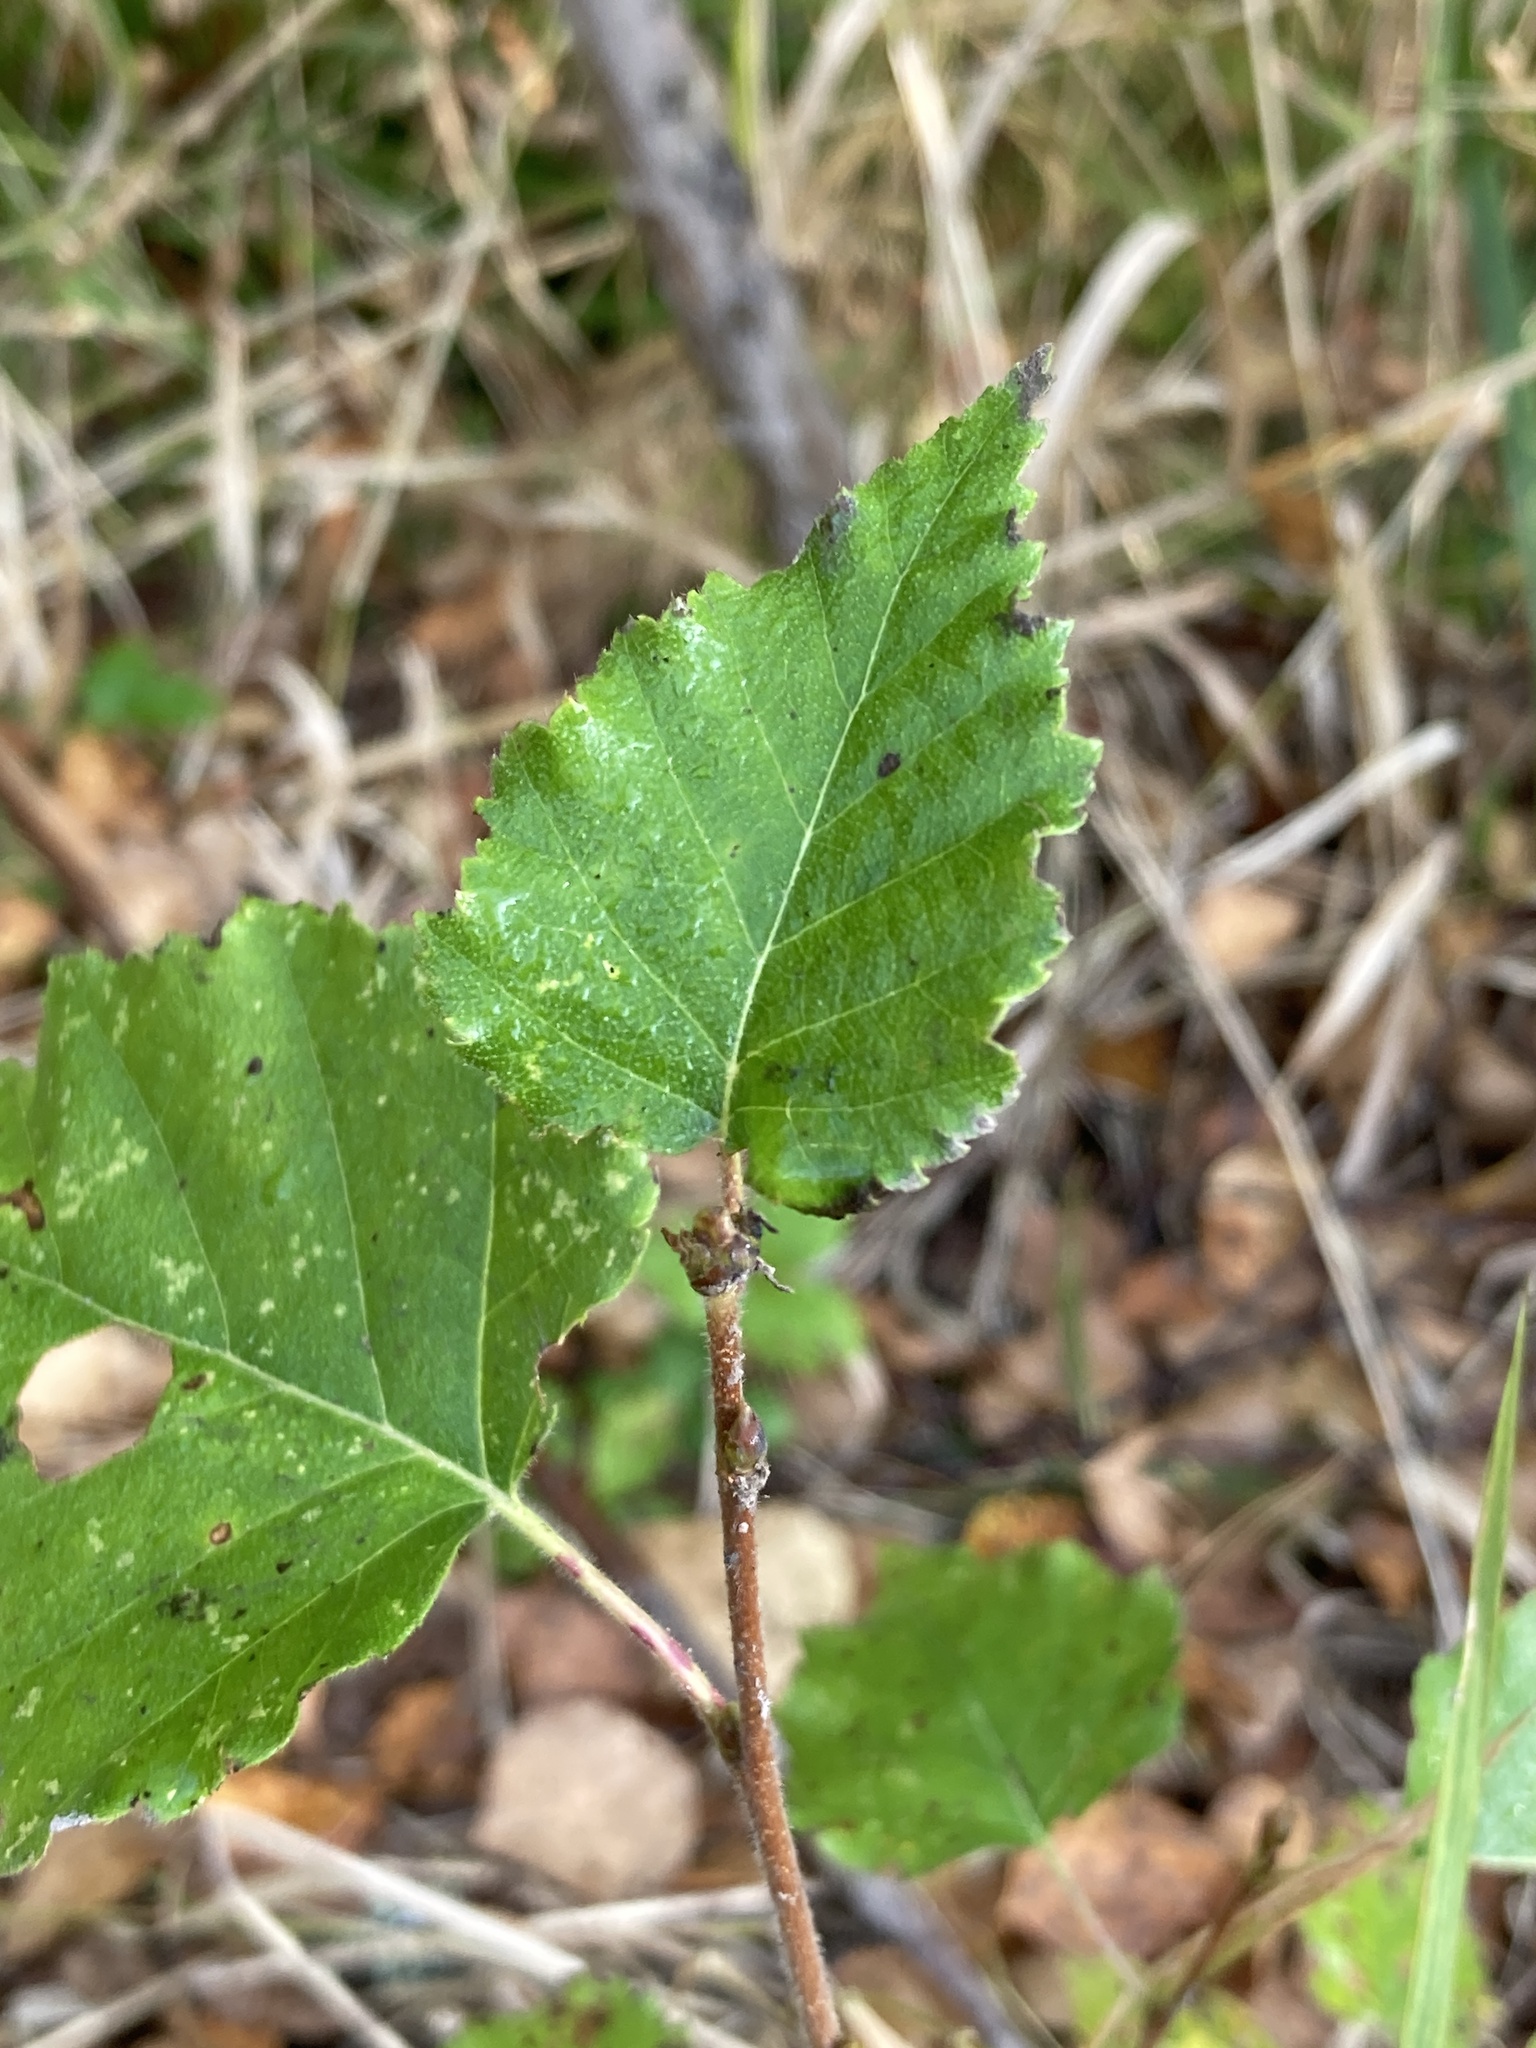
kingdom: Plantae
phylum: Tracheophyta
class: Magnoliopsida
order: Fagales
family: Betulaceae
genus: Betula
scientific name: Betula pubescens
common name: Downy birch
